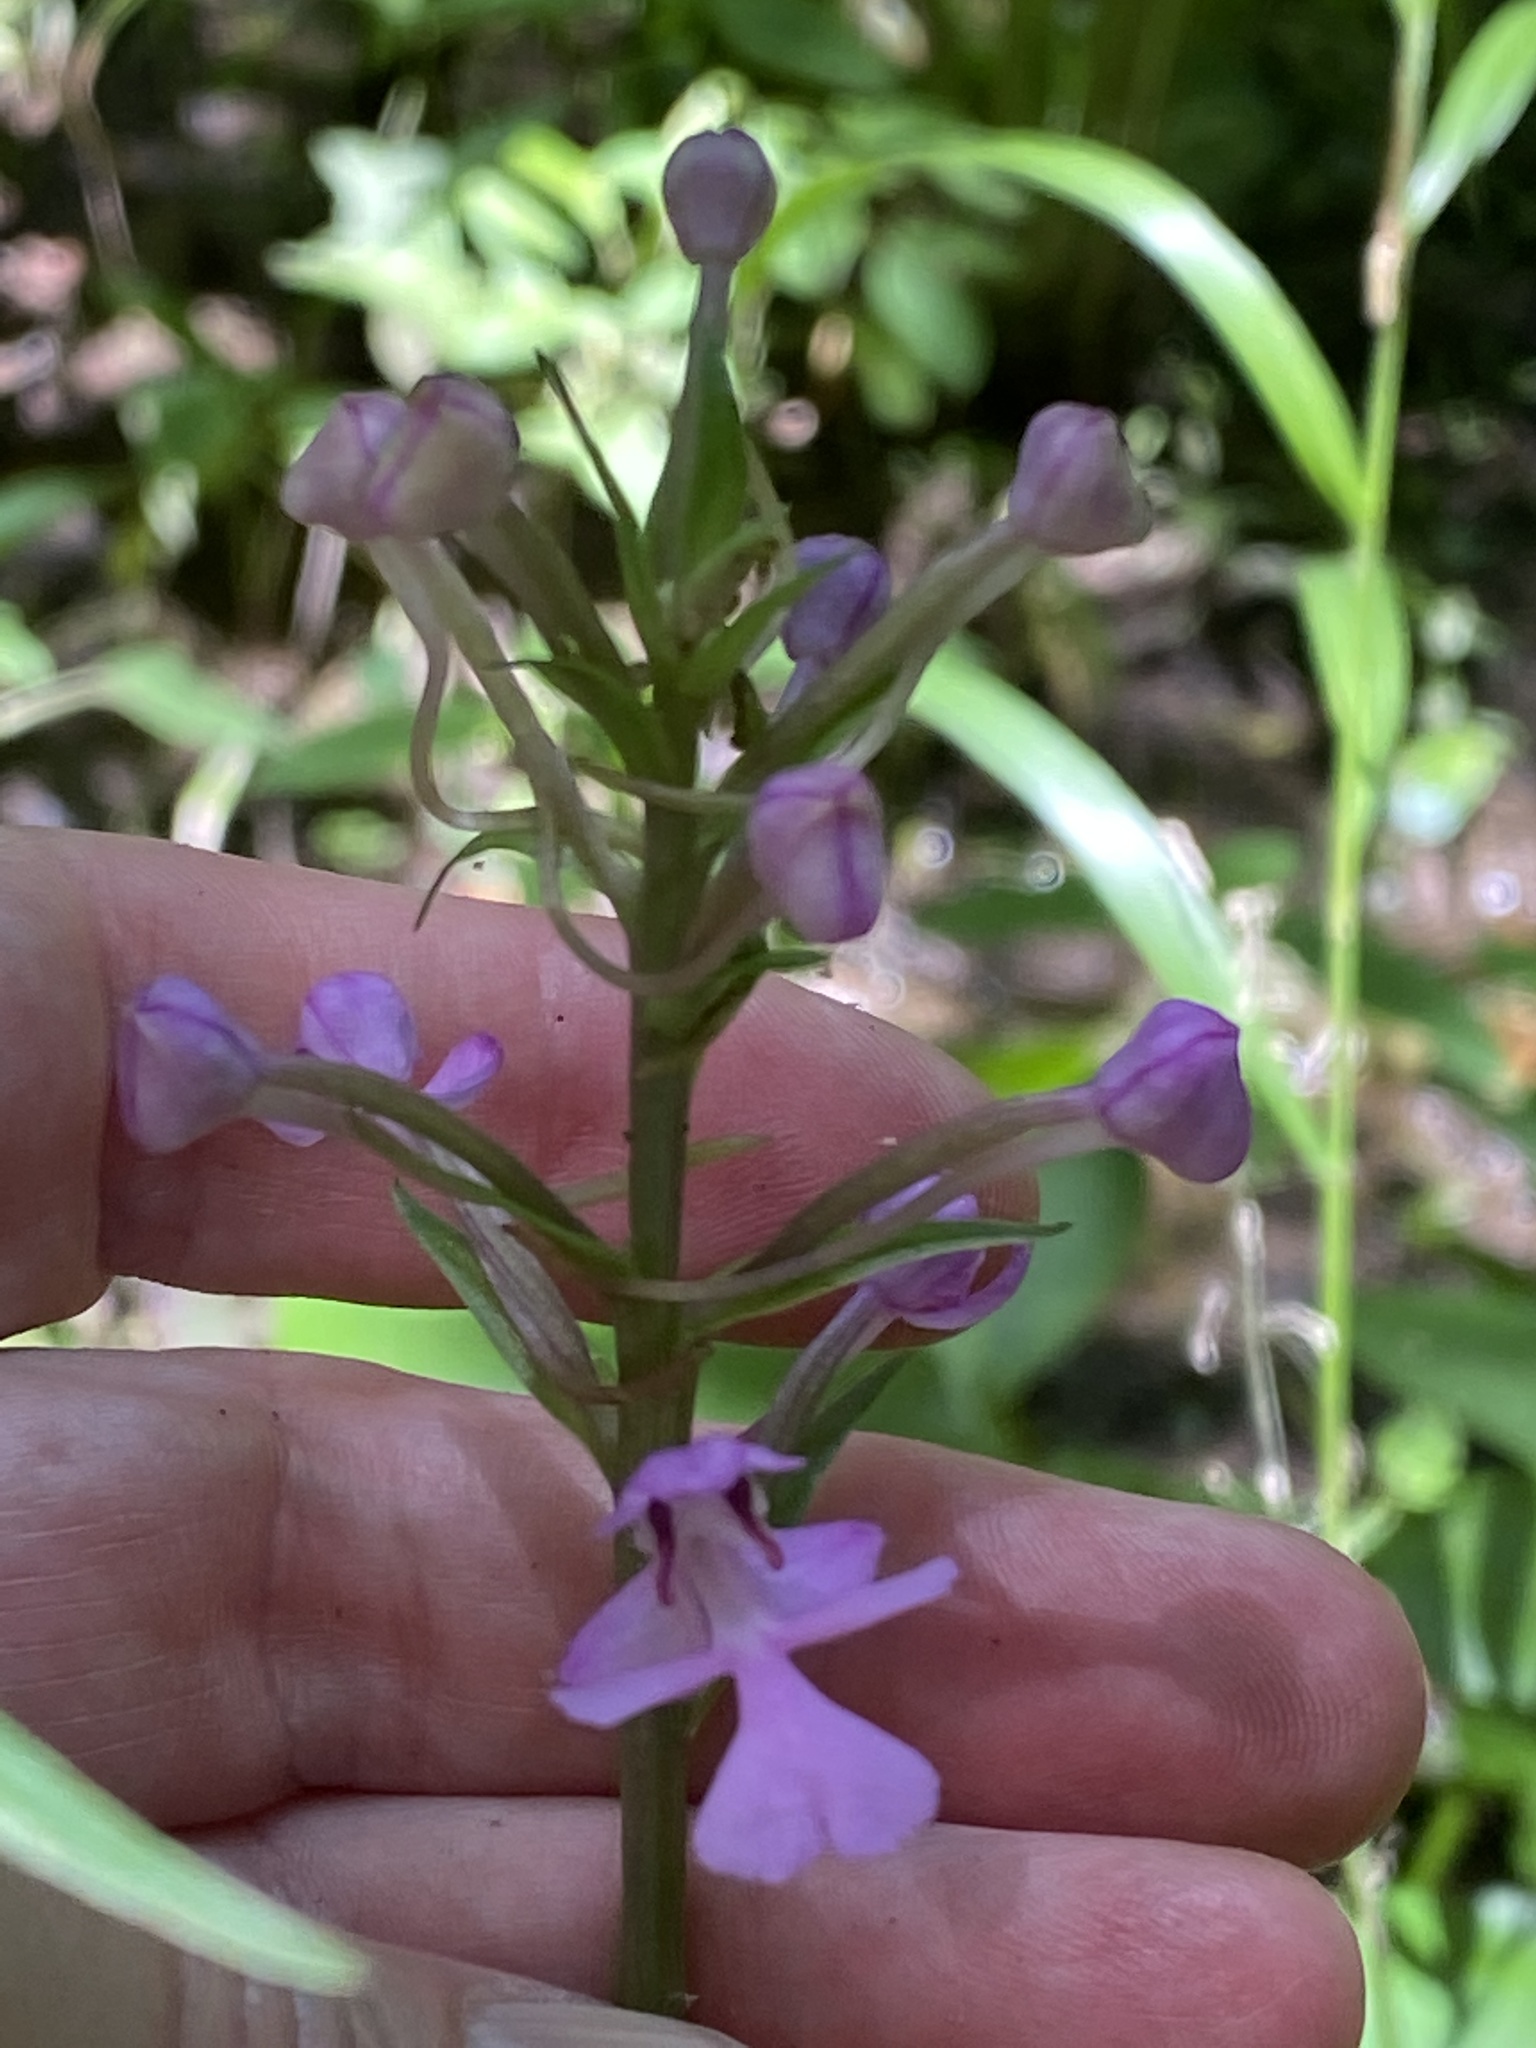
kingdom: Plantae
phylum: Tracheophyta
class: Liliopsida
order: Asparagales
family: Orchidaceae
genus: Platanthera
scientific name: Platanthera peramoena
